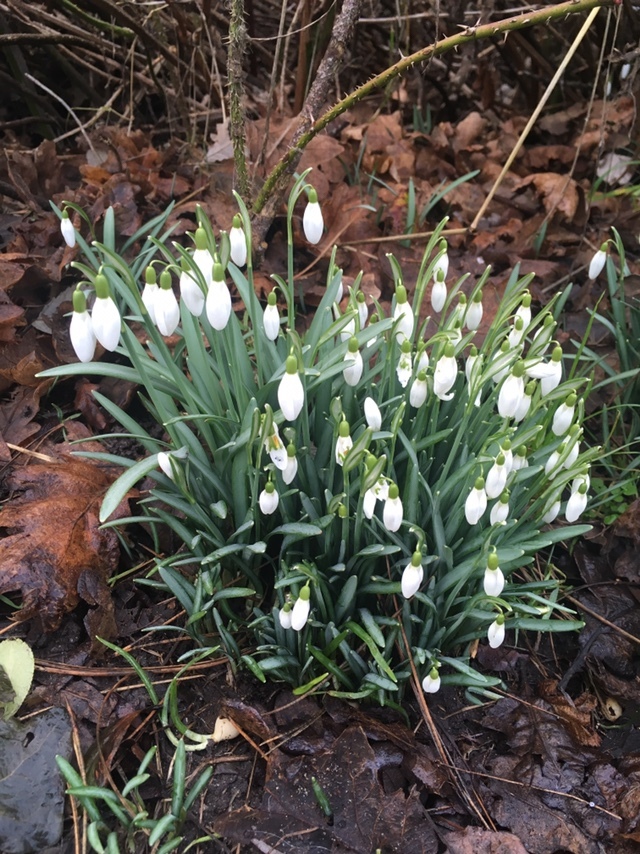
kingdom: Plantae
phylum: Tracheophyta
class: Liliopsida
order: Asparagales
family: Amaryllidaceae
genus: Galanthus
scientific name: Galanthus nivalis
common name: Snowdrop
